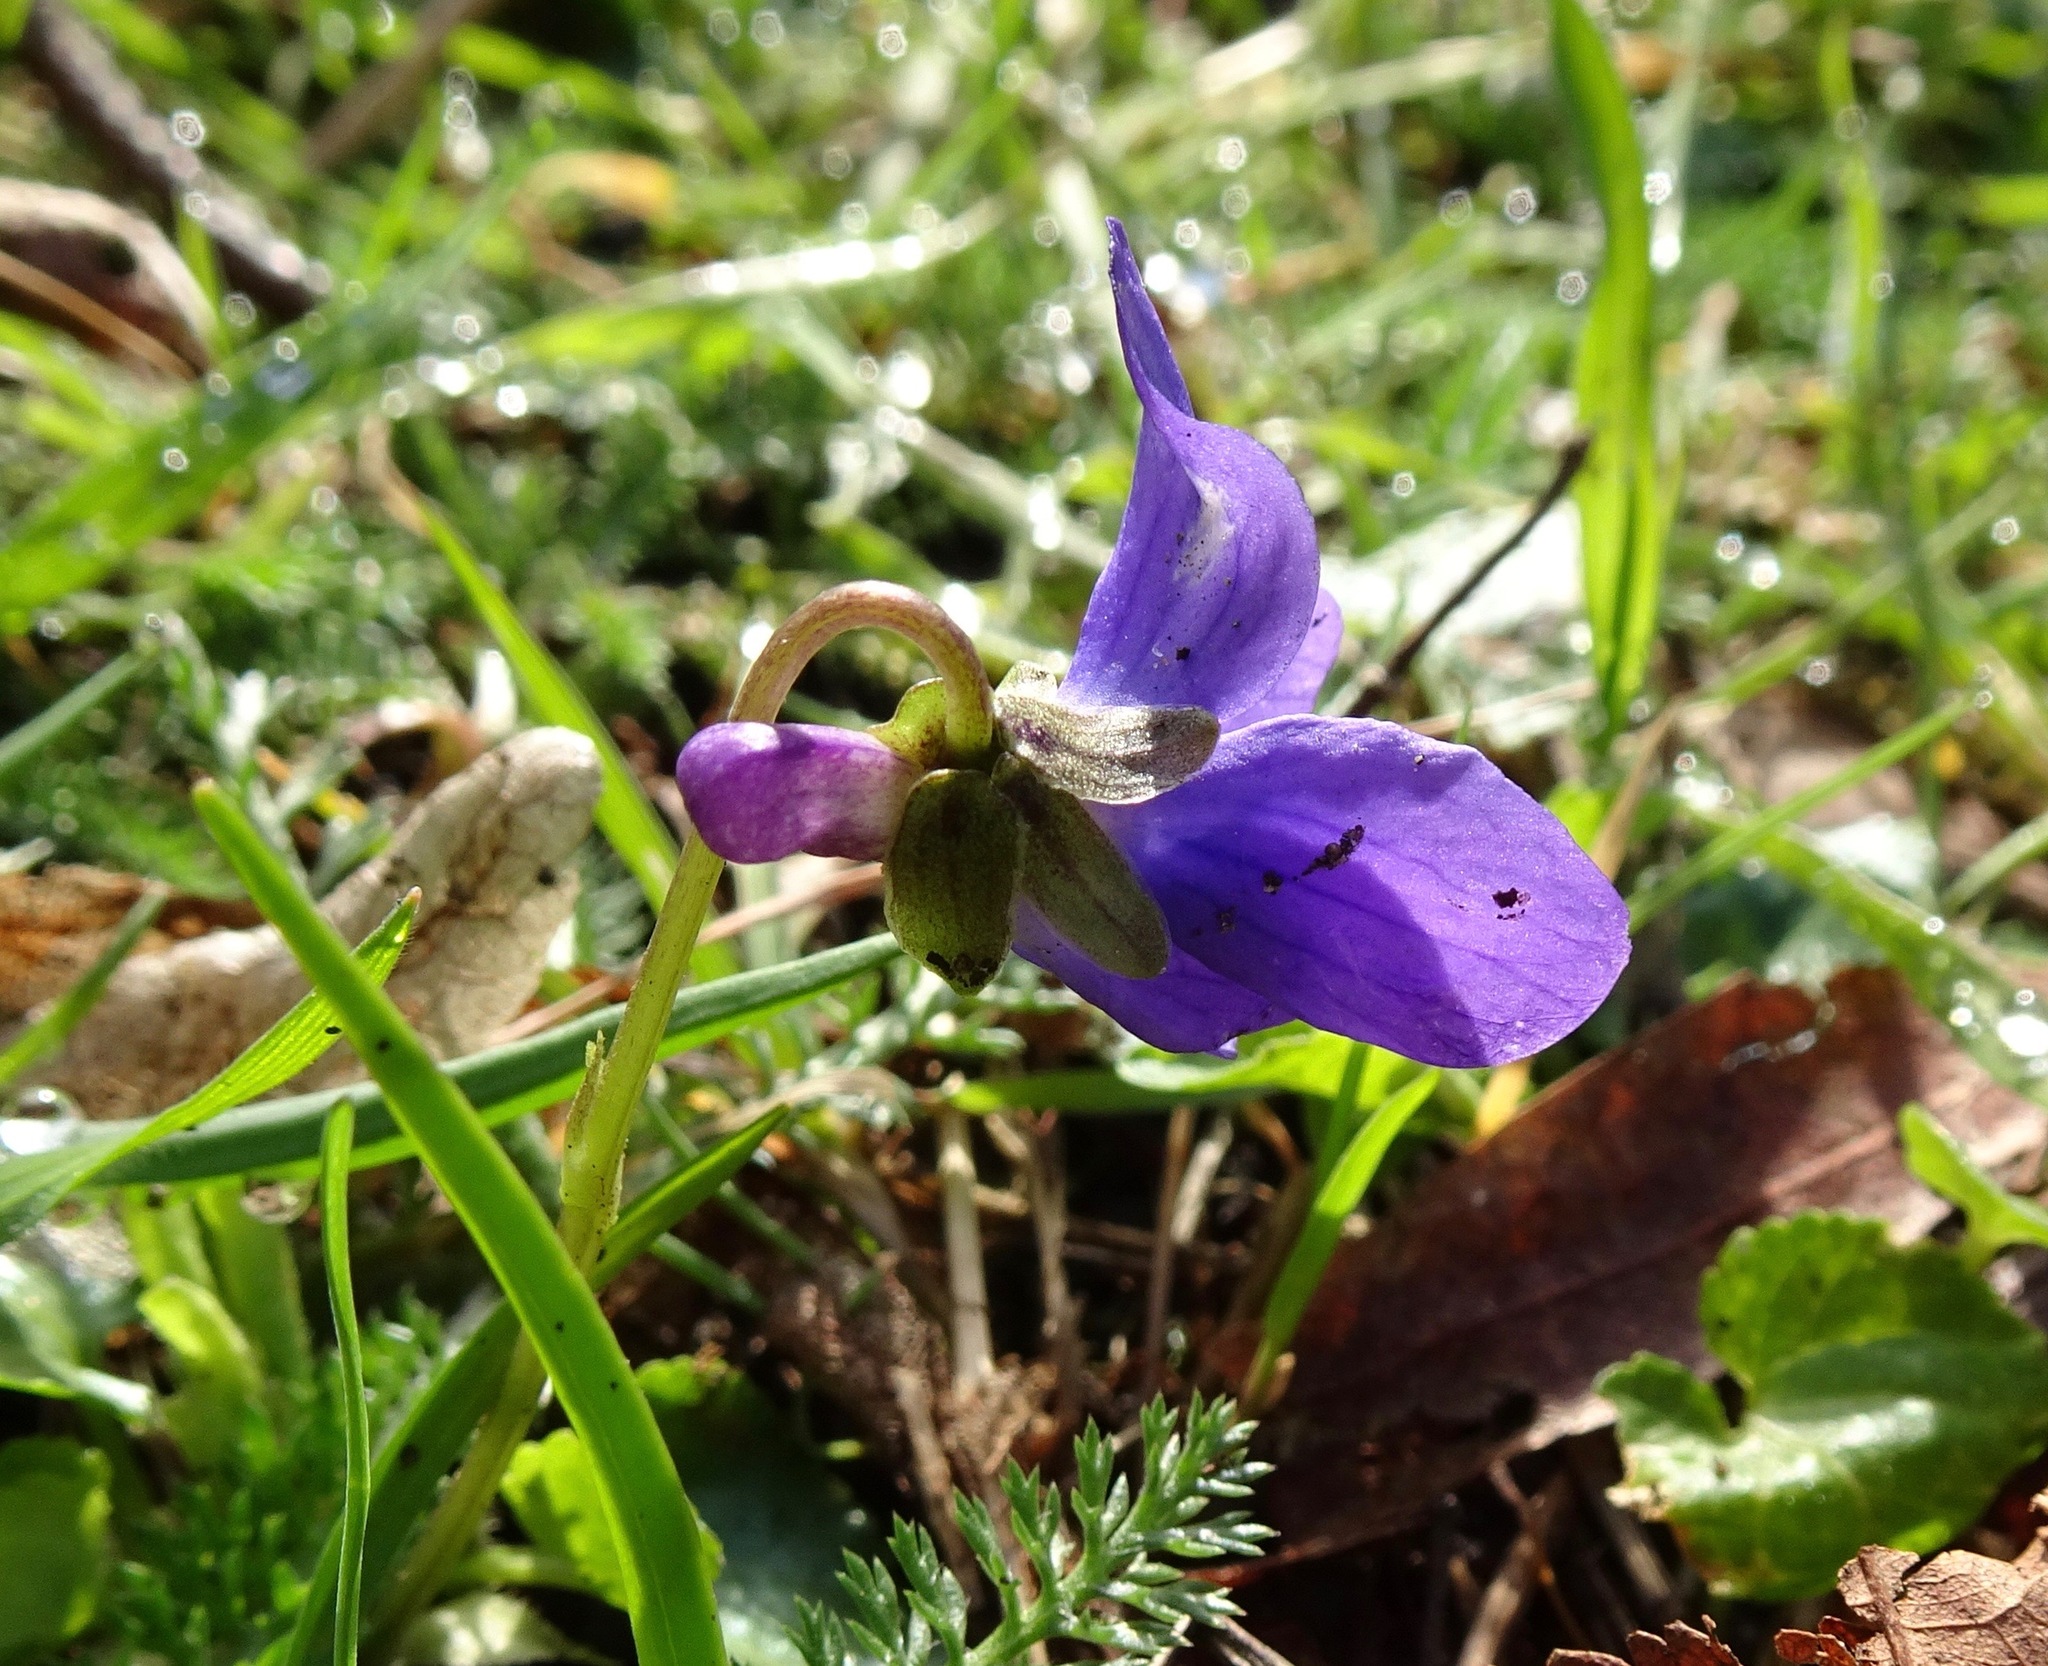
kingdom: Plantae
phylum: Tracheophyta
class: Magnoliopsida
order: Malpighiales
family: Violaceae
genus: Viola
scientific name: Viola odorata
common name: Sweet violet
